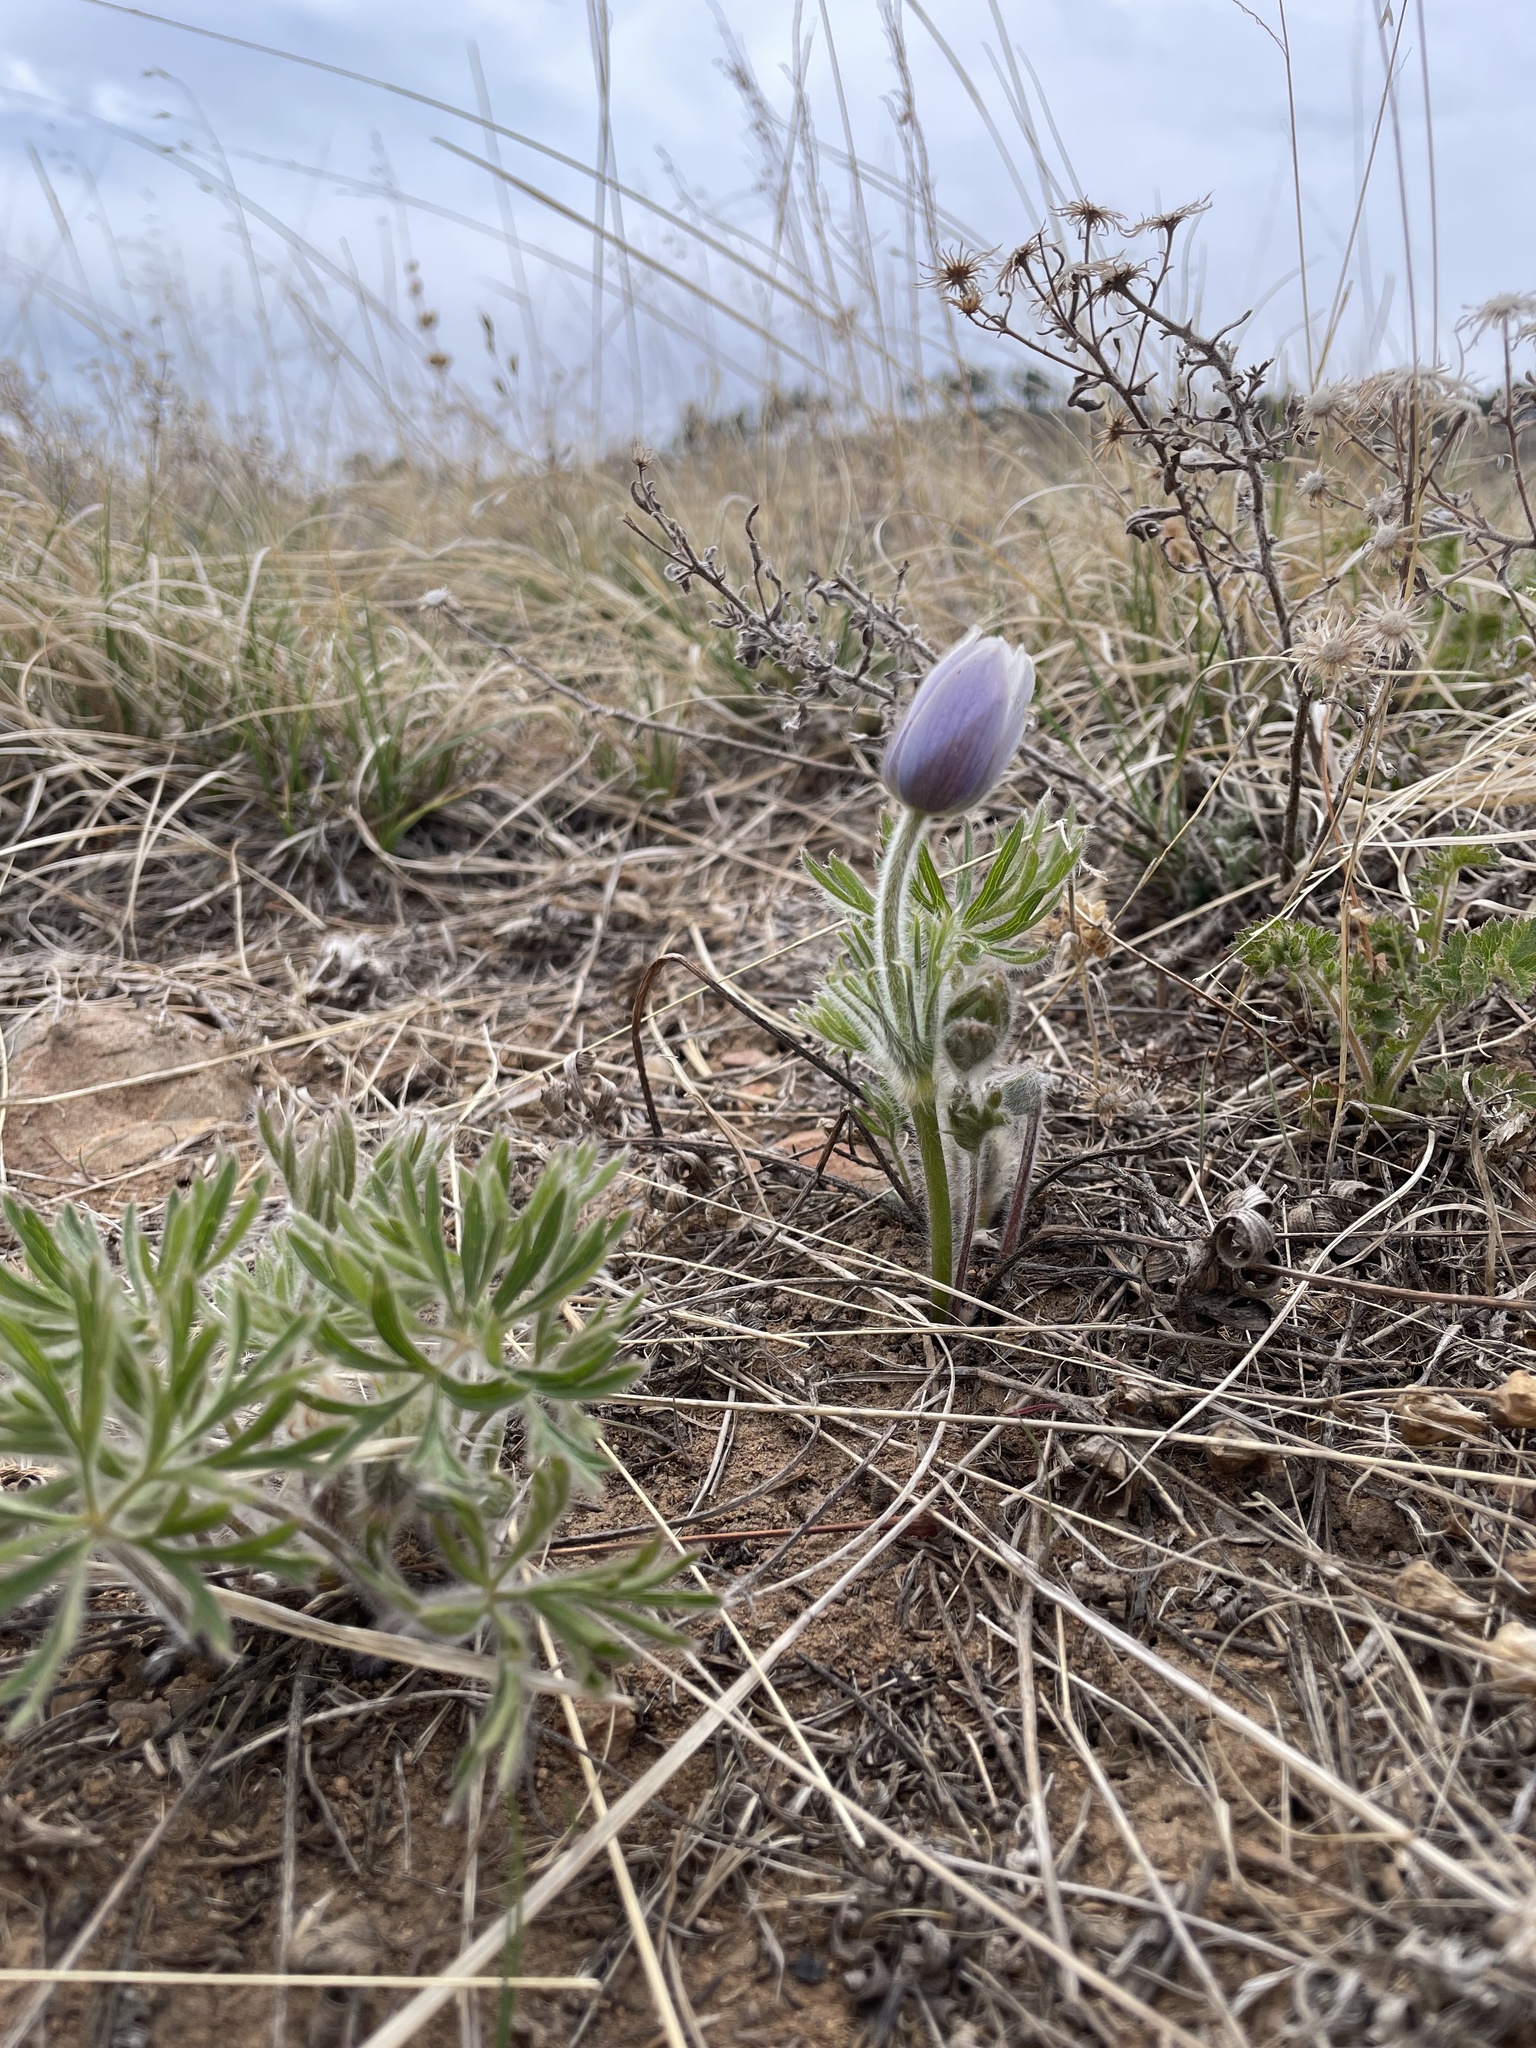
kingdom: Plantae
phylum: Tracheophyta
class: Magnoliopsida
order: Ranunculales
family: Ranunculaceae
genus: Pulsatilla
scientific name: Pulsatilla nuttalliana
